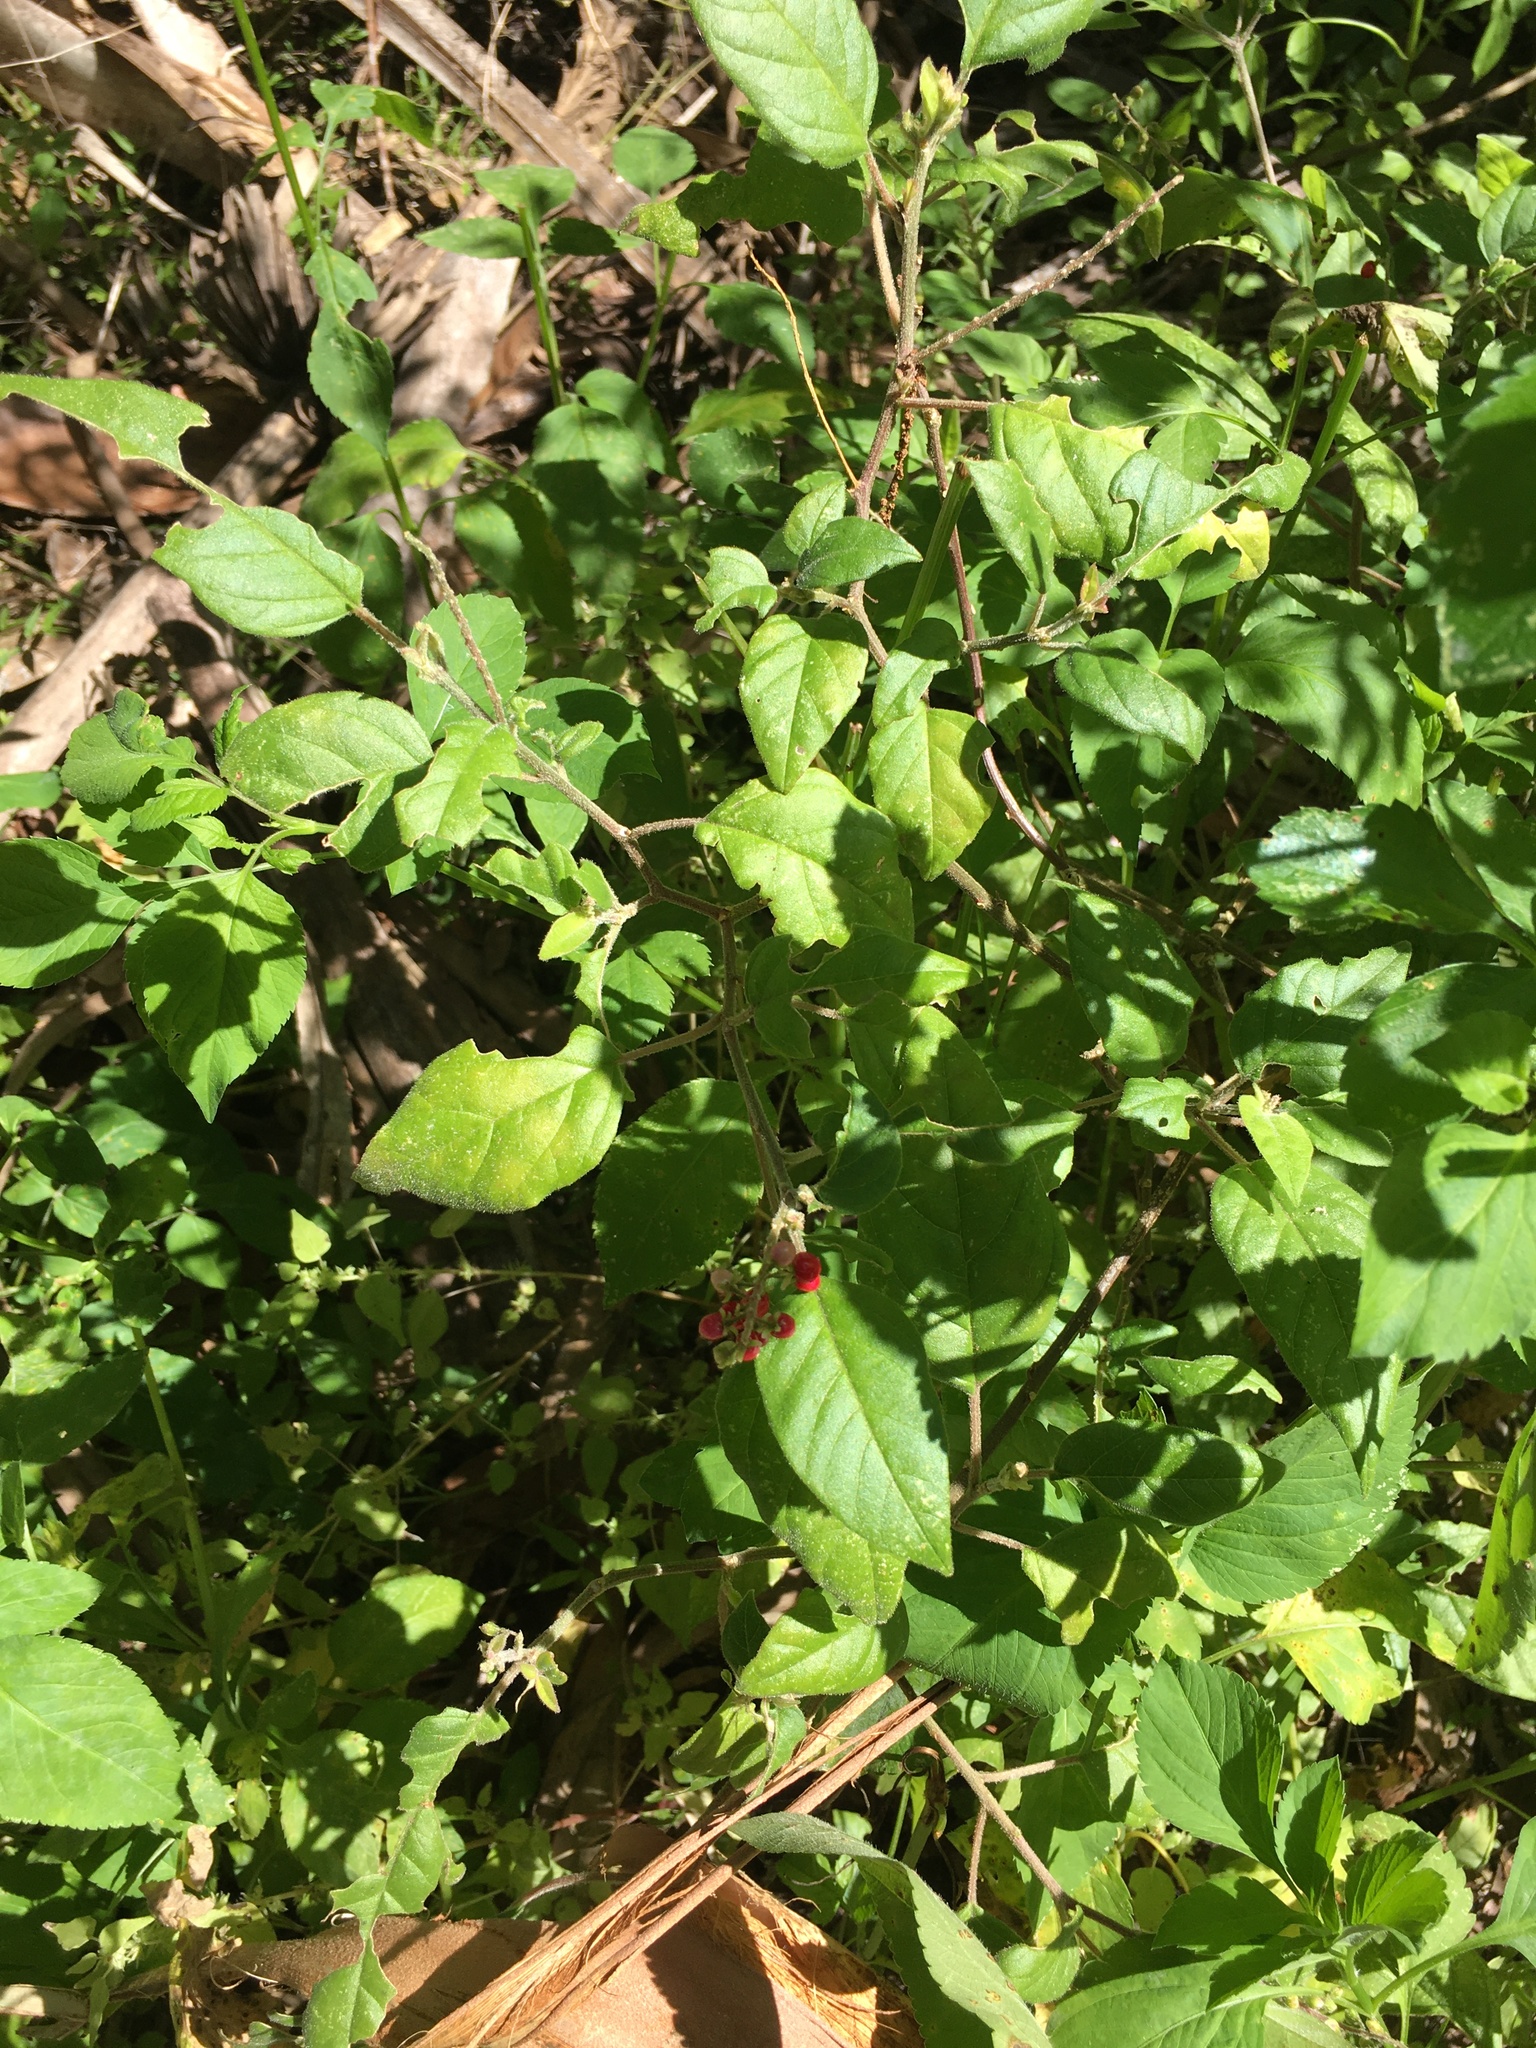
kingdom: Plantae
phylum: Tracheophyta
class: Magnoliopsida
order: Caryophyllales
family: Phytolaccaceae
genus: Rivina
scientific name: Rivina humilis
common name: Rougeplant
